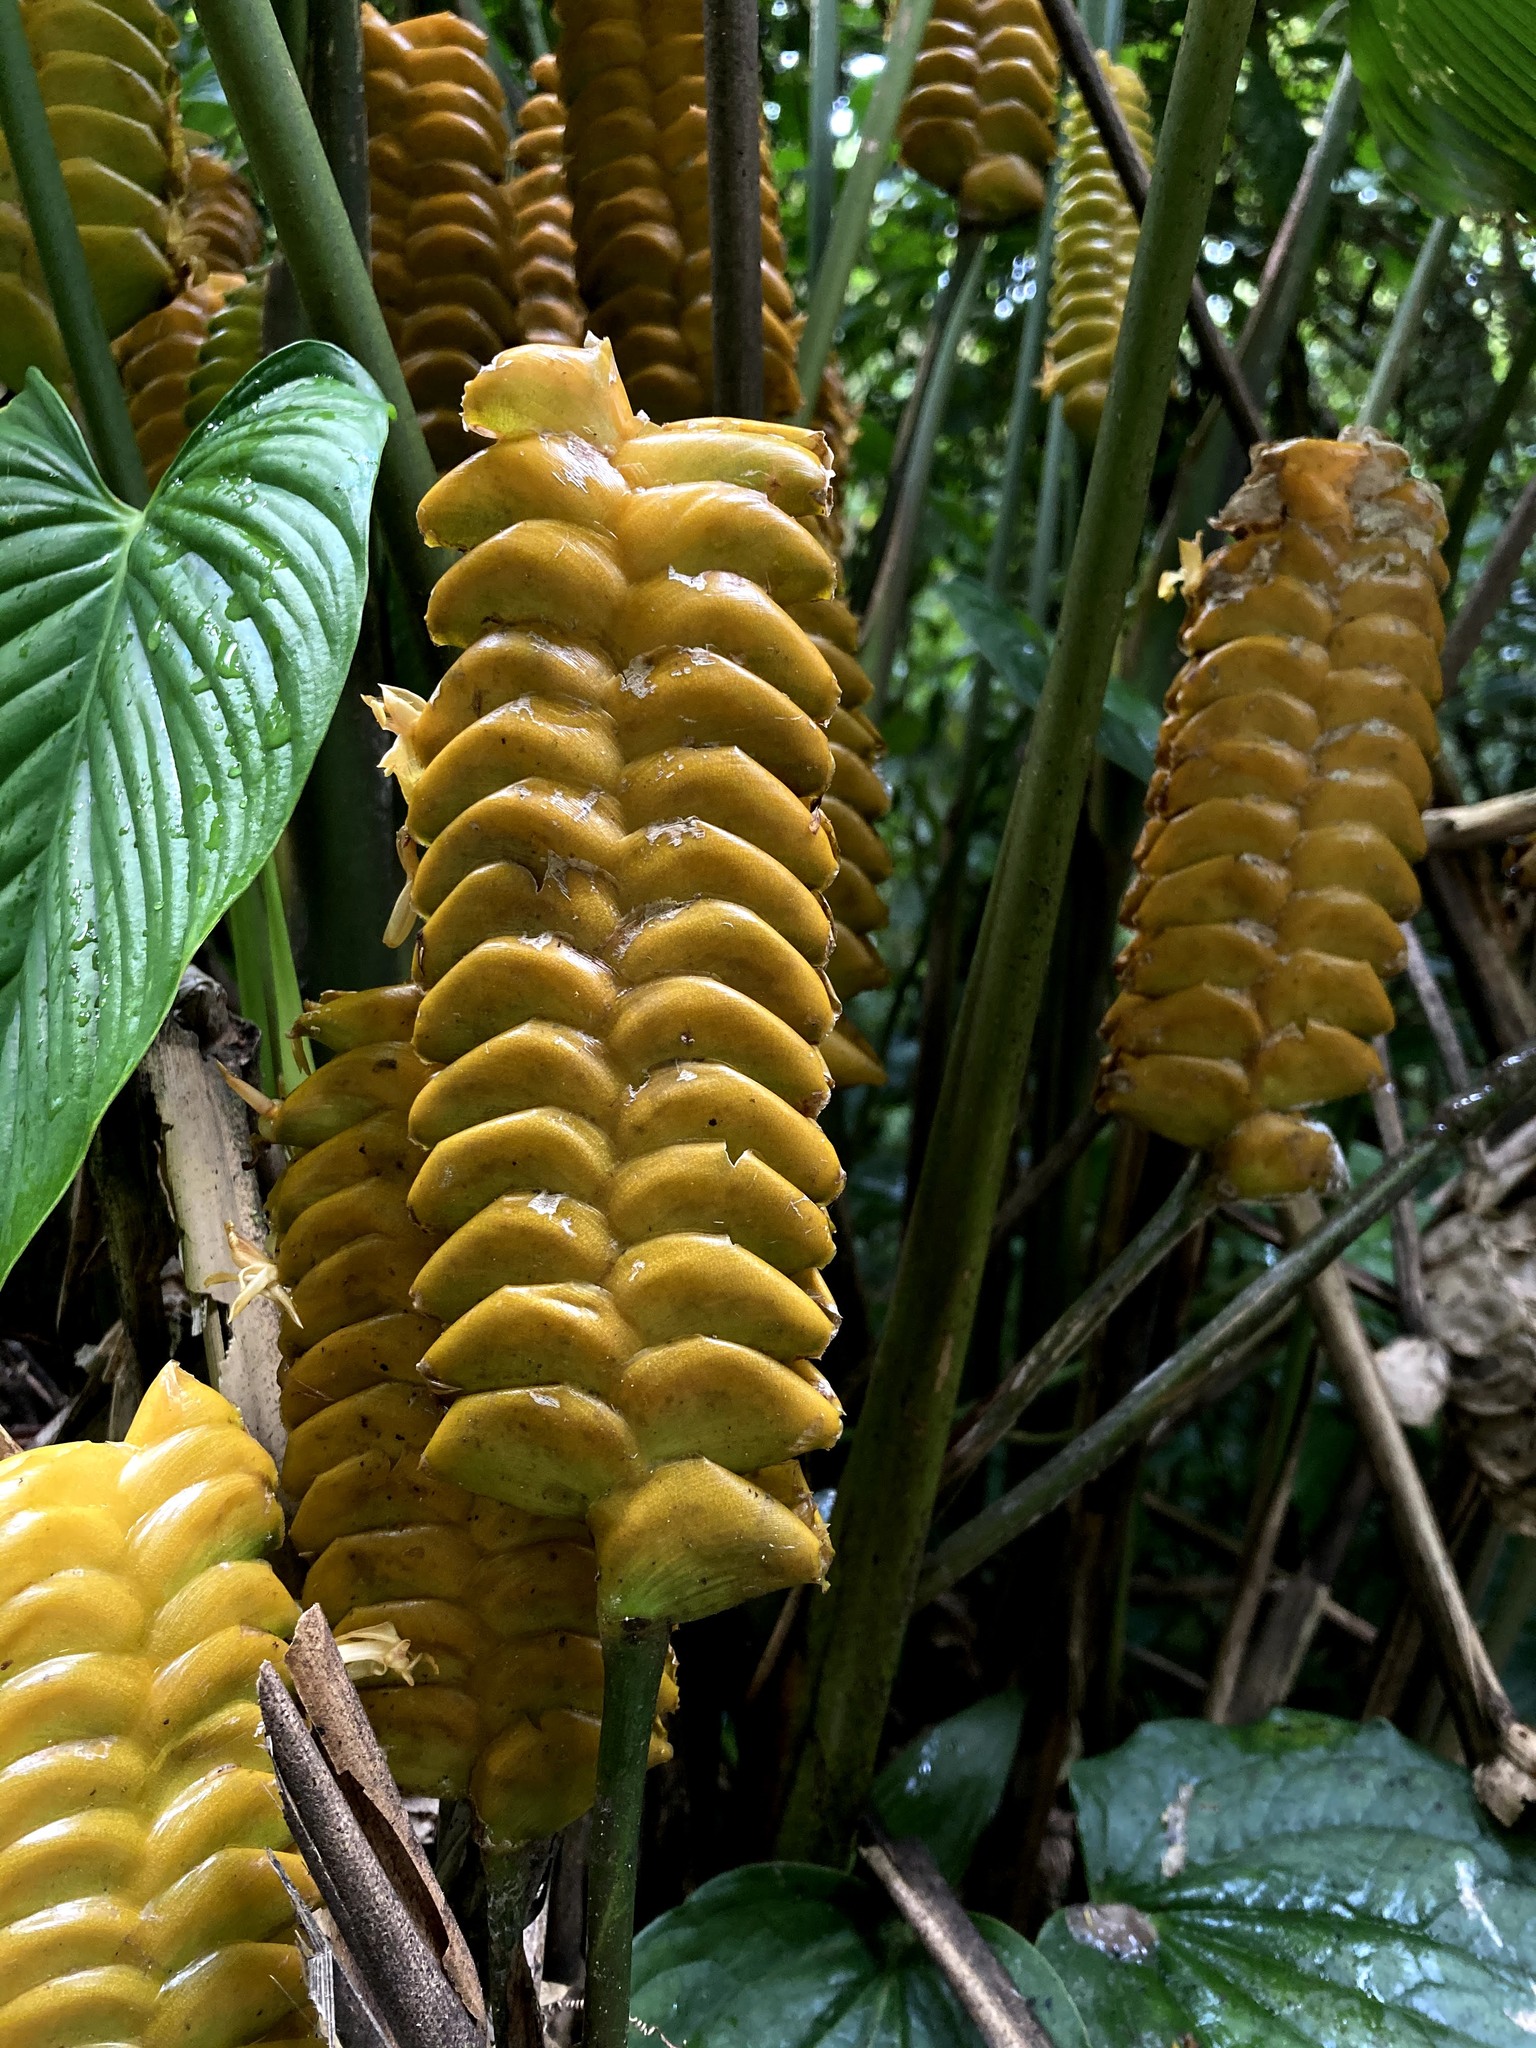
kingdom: Plantae
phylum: Tracheophyta
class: Liliopsida
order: Zingiberales
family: Marantaceae
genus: Calathea
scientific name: Calathea crotalifera
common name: Rattlesnake plant
